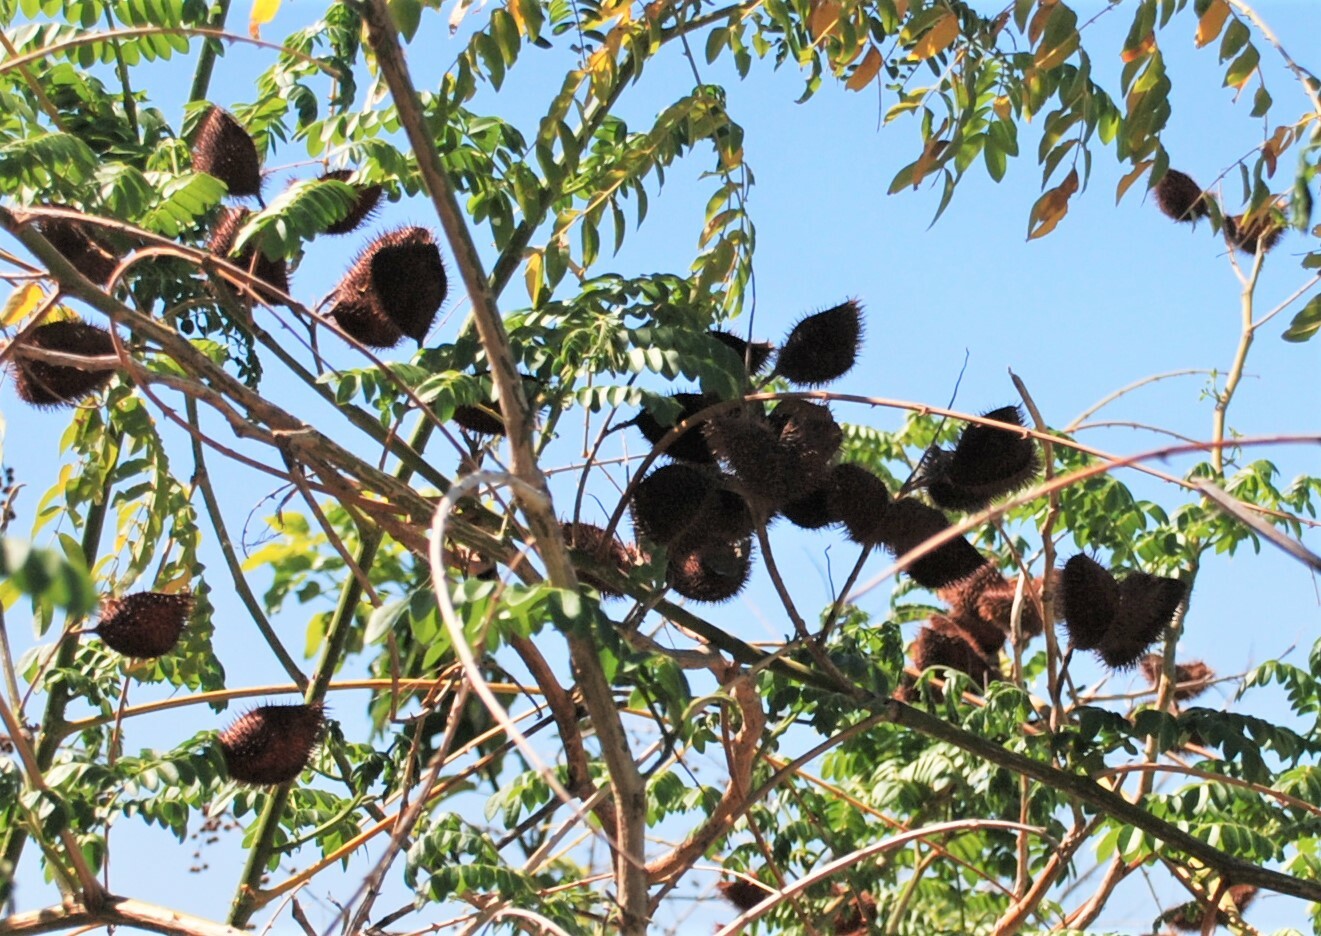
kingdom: Plantae
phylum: Tracheophyta
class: Magnoliopsida
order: Fabales
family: Fabaceae
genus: Guilandina
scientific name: Guilandina bonduc
